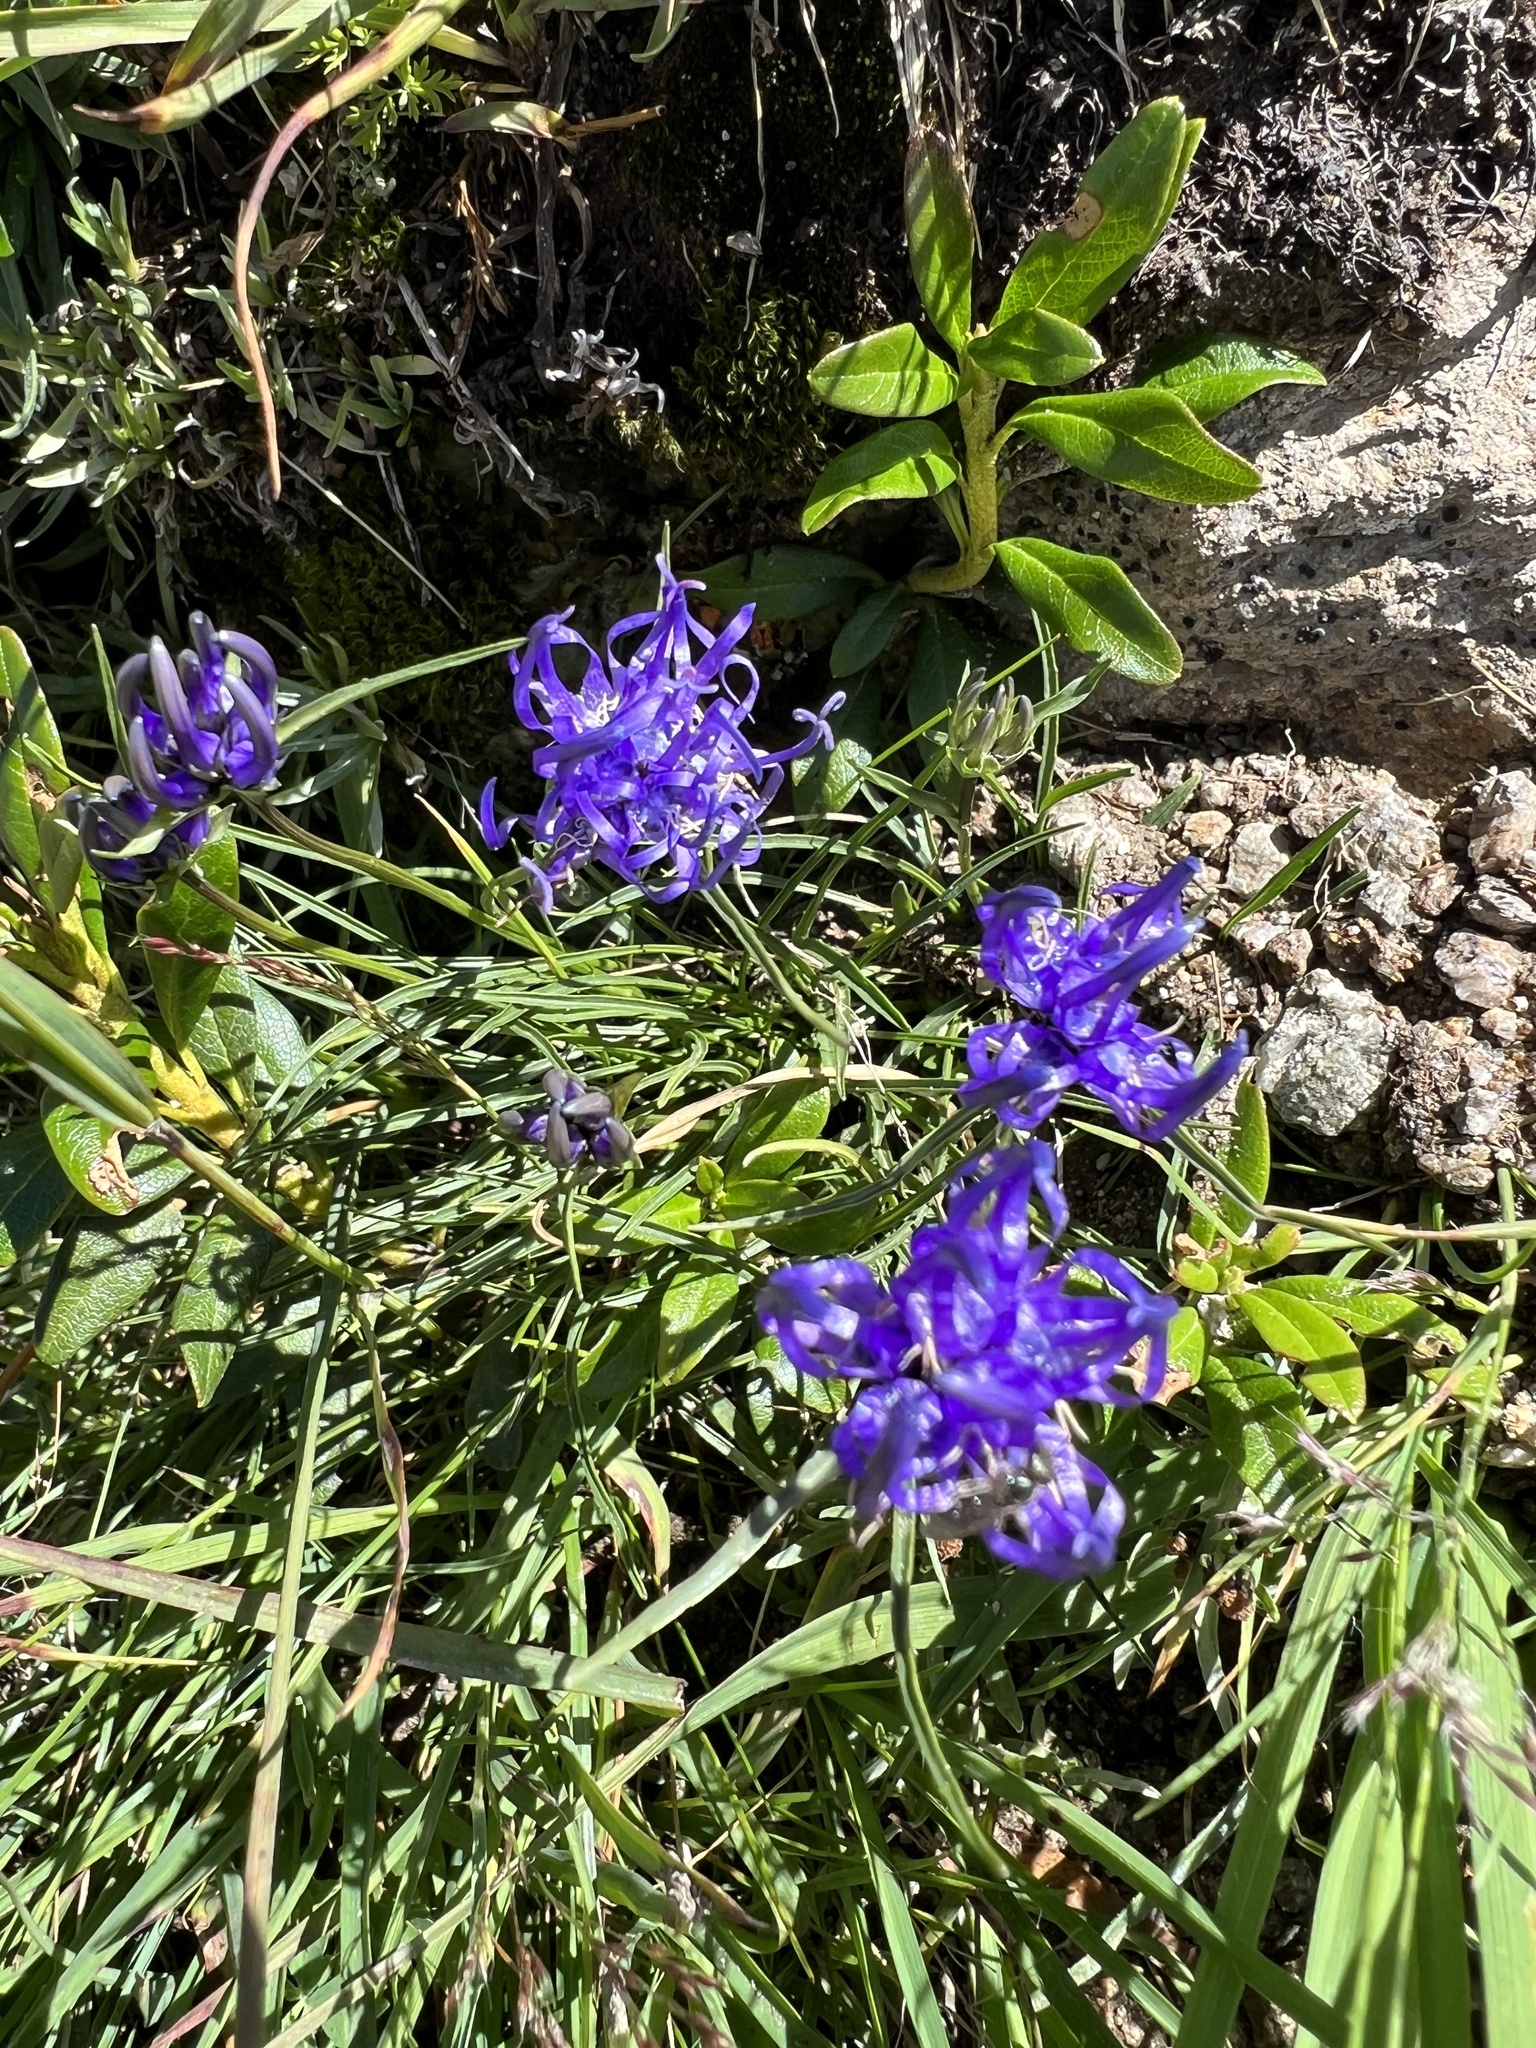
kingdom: Plantae
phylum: Tracheophyta
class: Magnoliopsida
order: Asterales
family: Campanulaceae
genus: Phyteuma
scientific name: Phyteuma hemisphaericum
